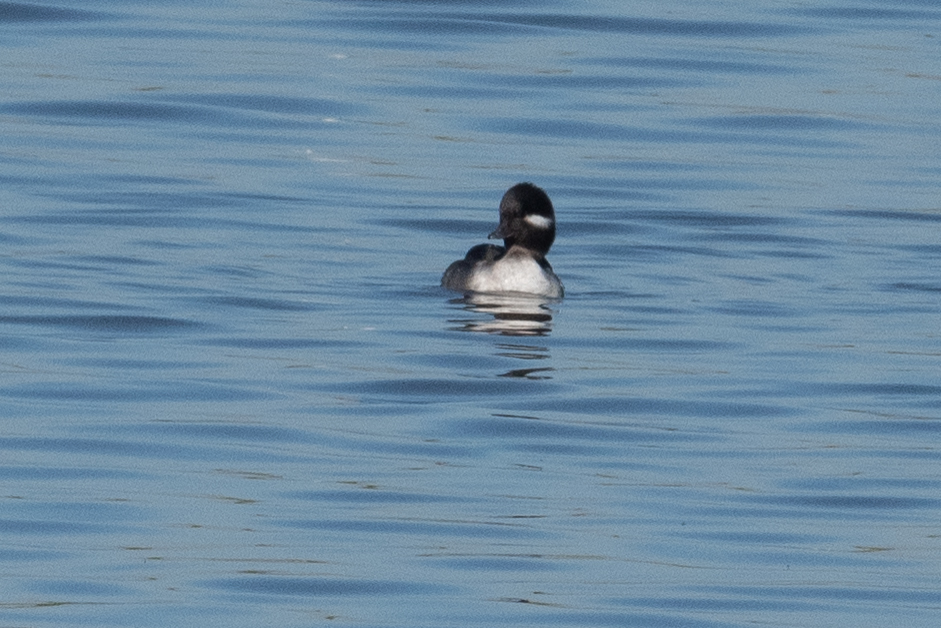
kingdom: Animalia
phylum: Chordata
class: Aves
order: Anseriformes
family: Anatidae
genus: Bucephala
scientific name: Bucephala albeola
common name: Bufflehead
